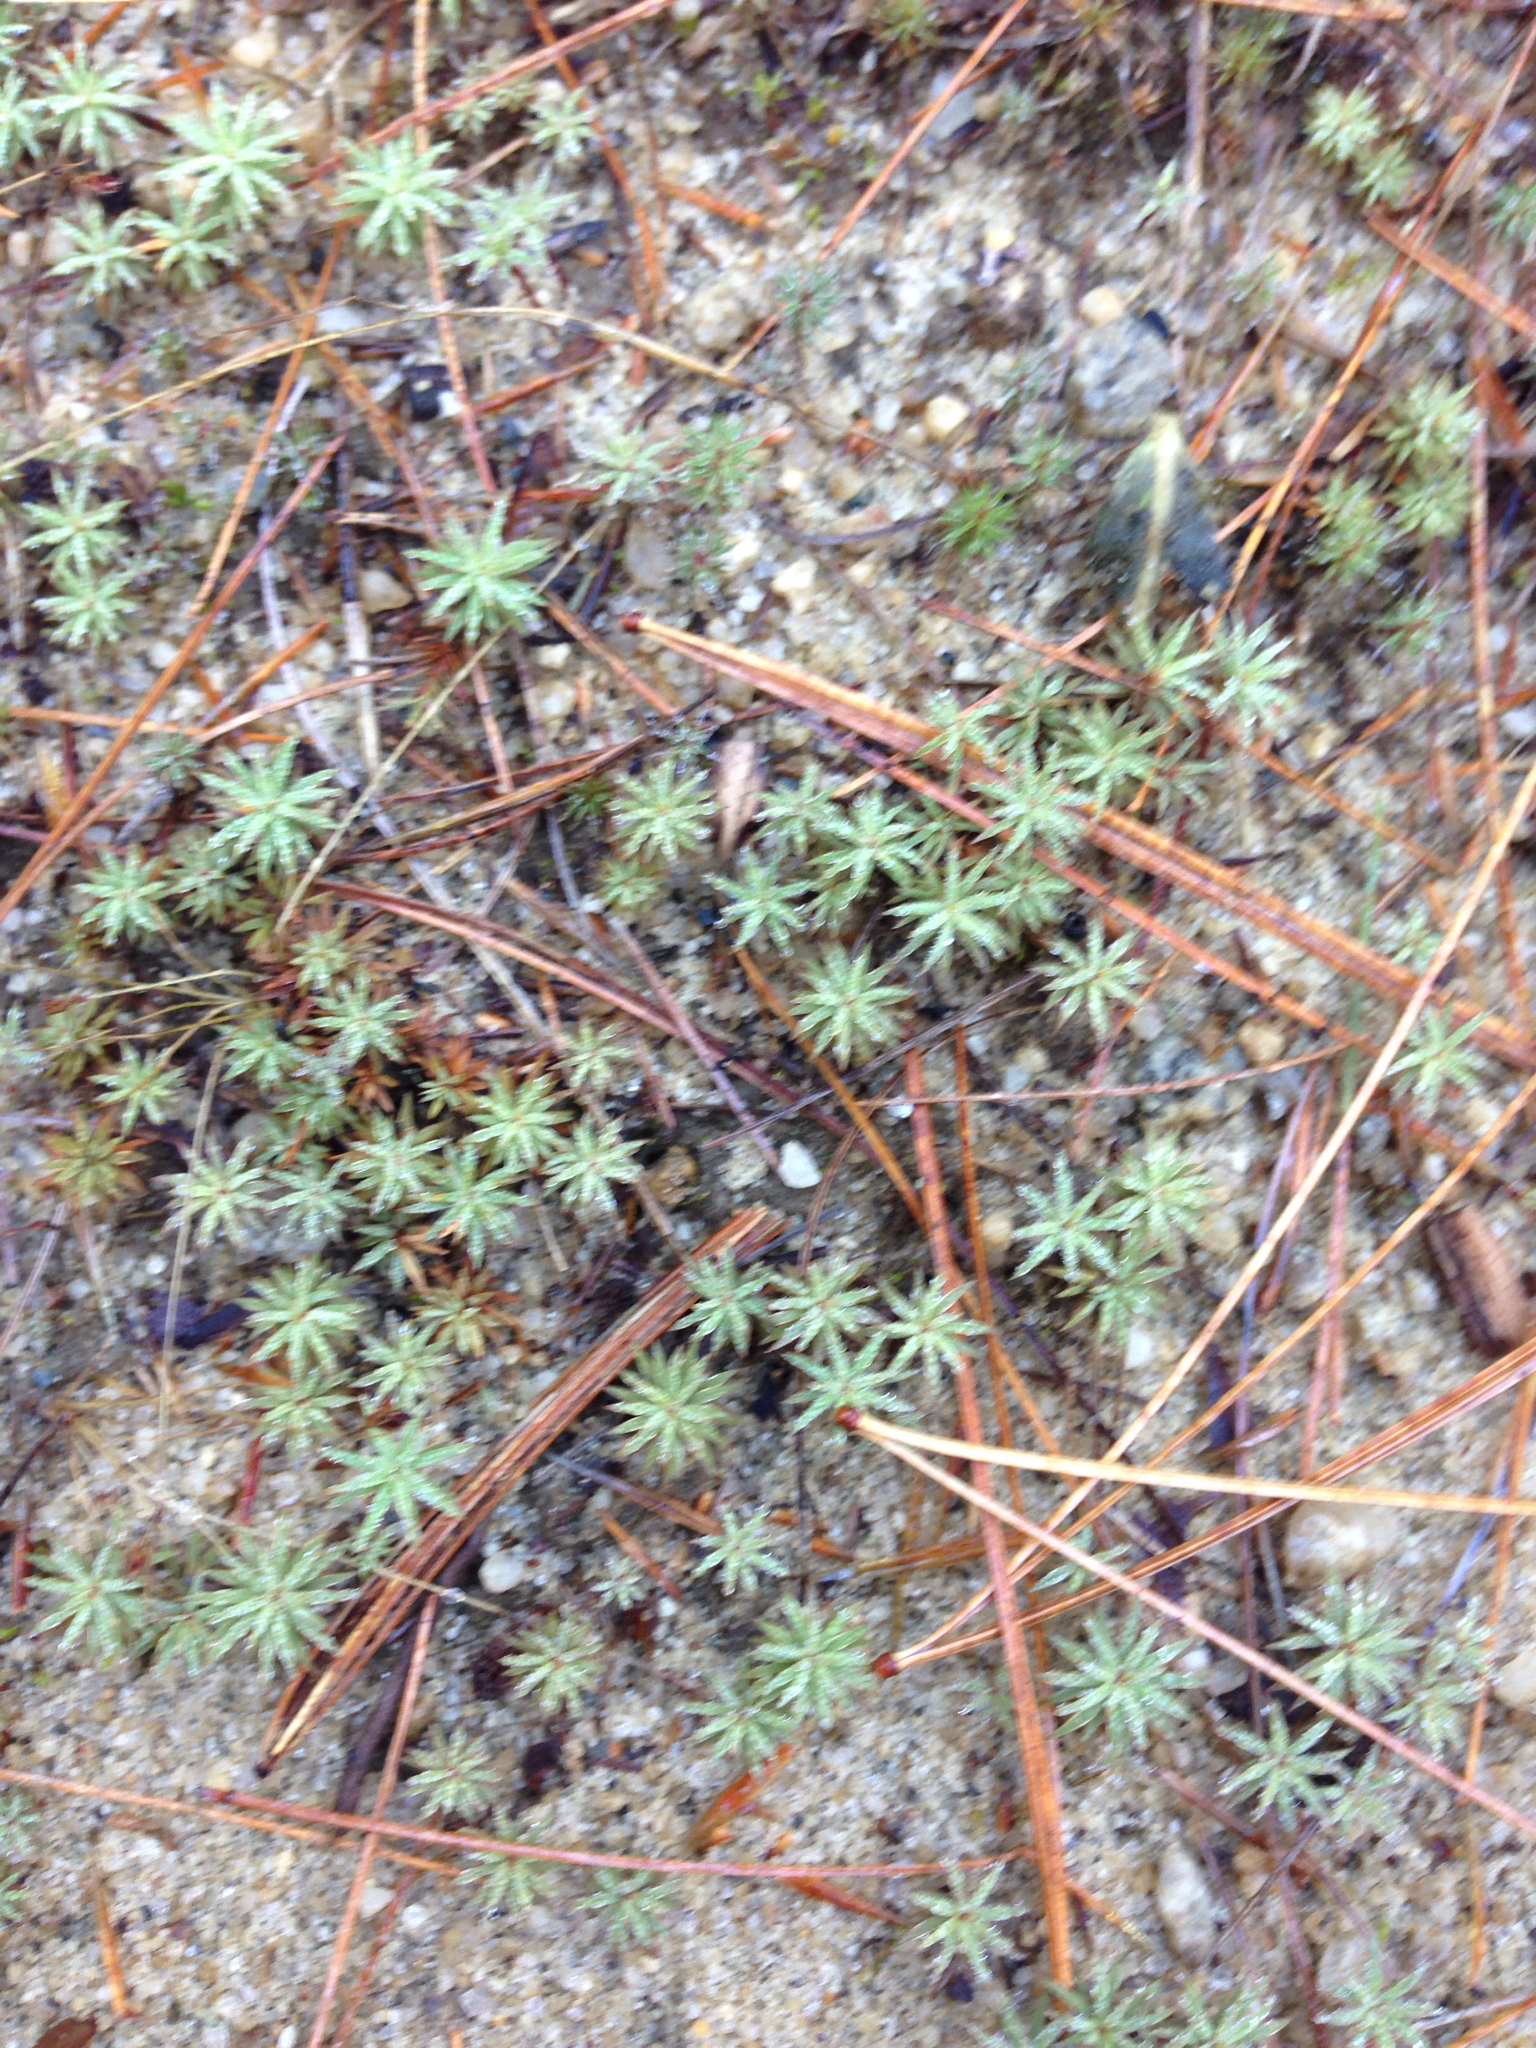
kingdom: Plantae
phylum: Bryophyta
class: Polytrichopsida
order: Polytrichales
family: Polytrichaceae
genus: Polytrichum
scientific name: Polytrichum juniperinum
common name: Juniper haircap moss
